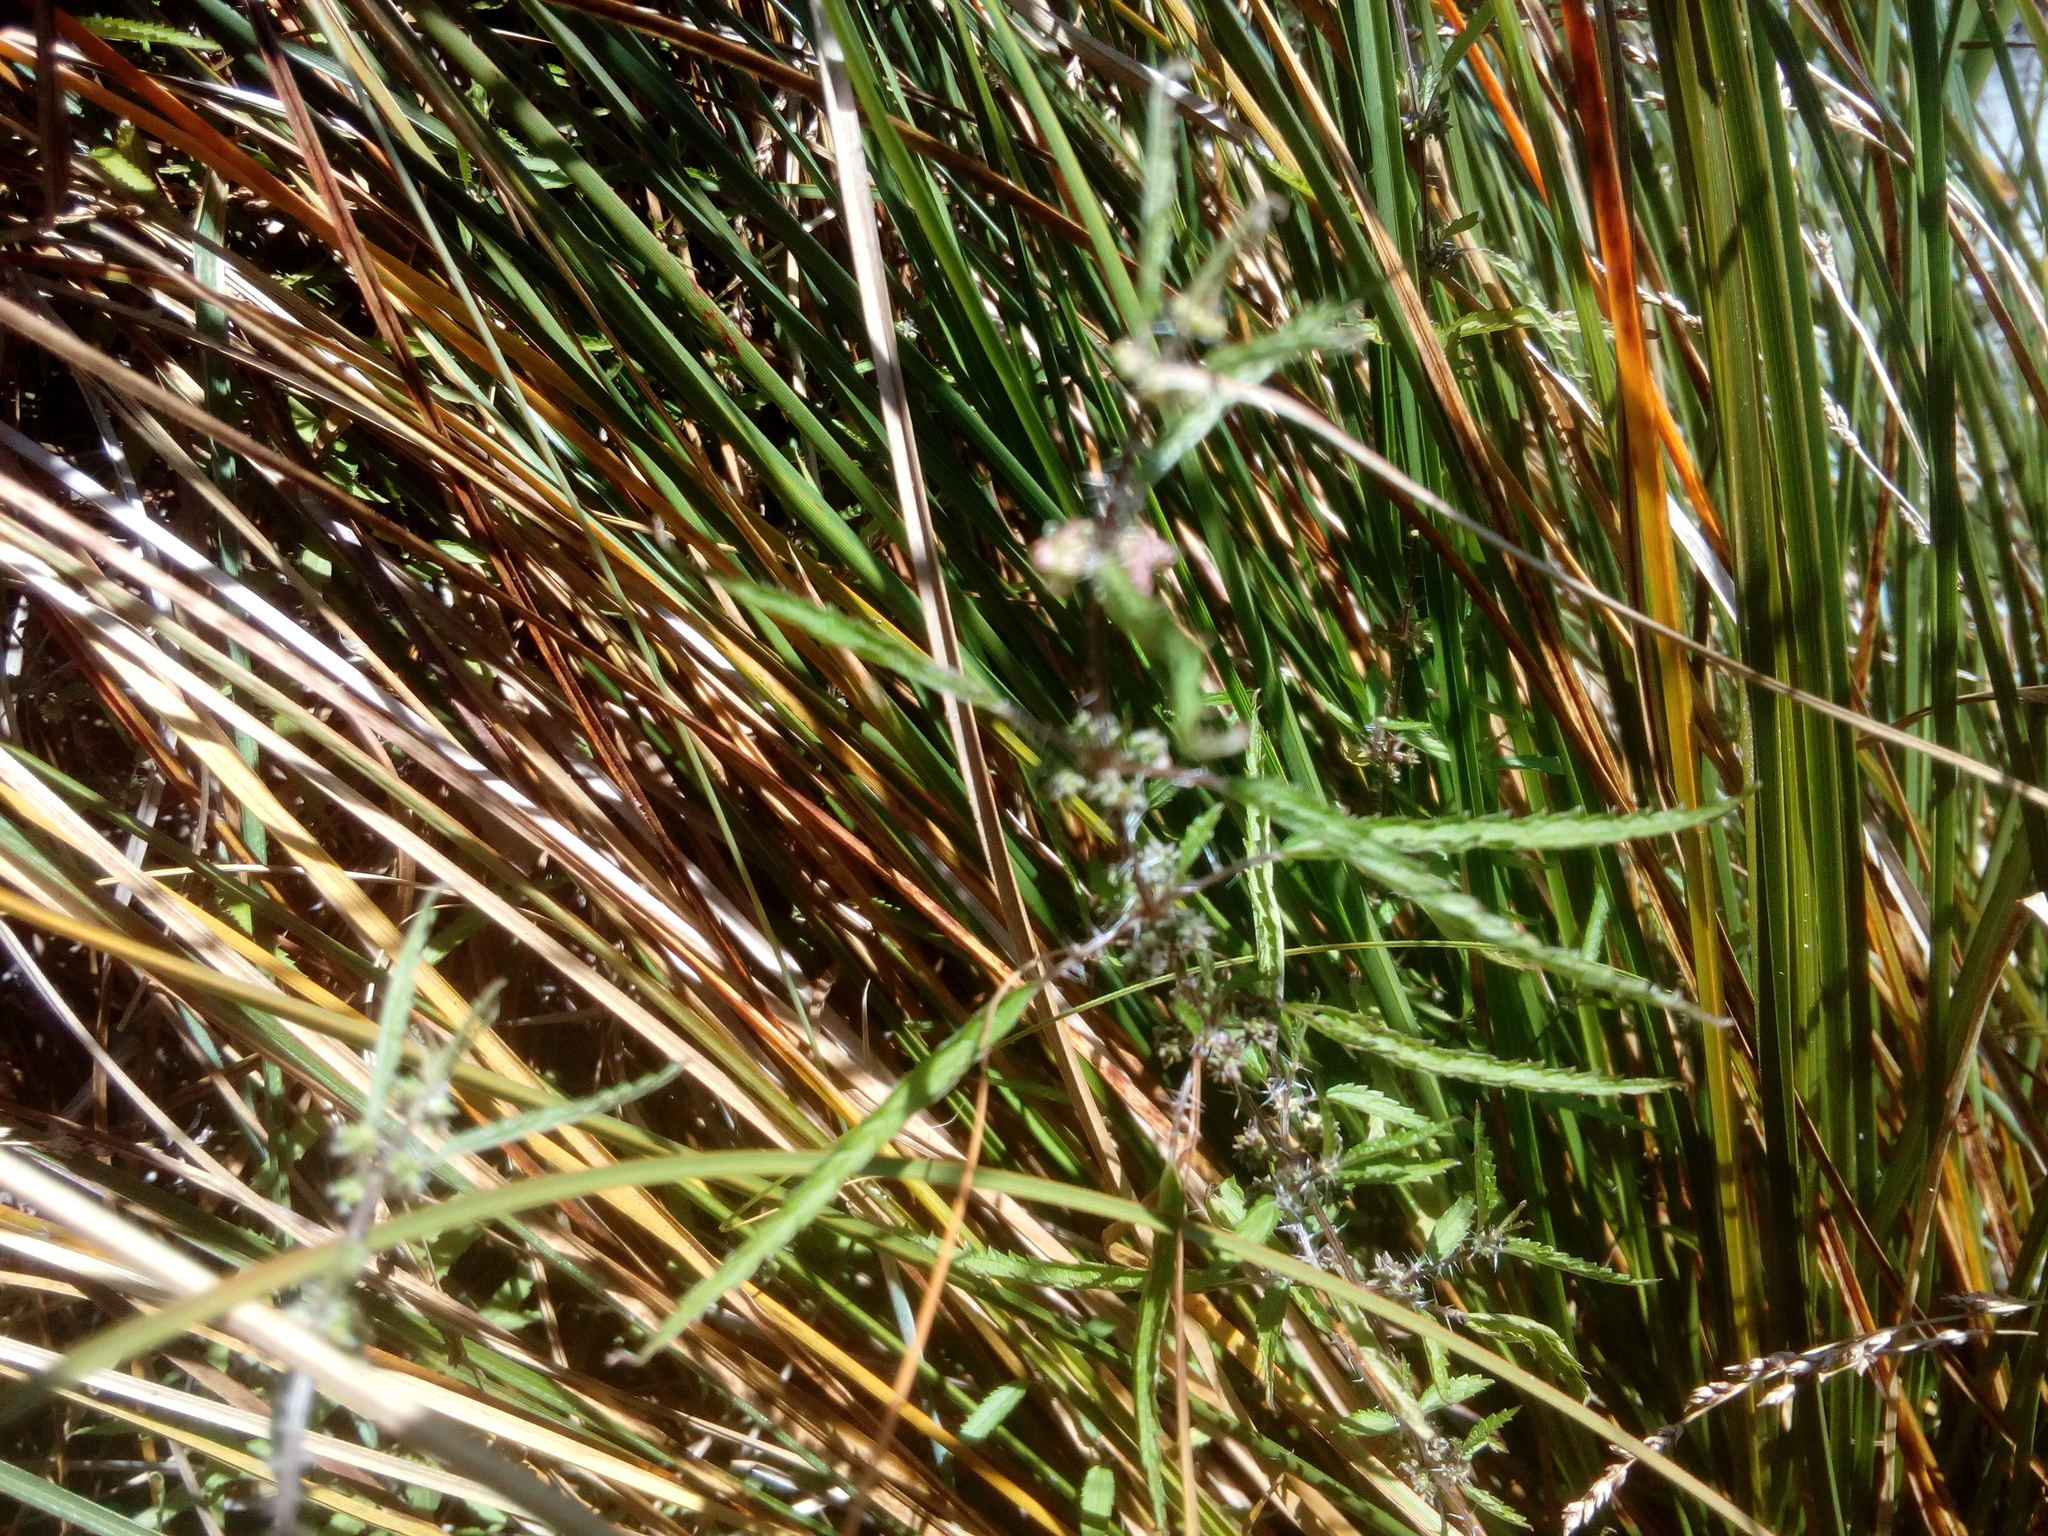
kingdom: Plantae
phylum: Tracheophyta
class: Magnoliopsida
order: Rosales
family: Urticaceae
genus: Urtica
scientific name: Urtica perconfusa
